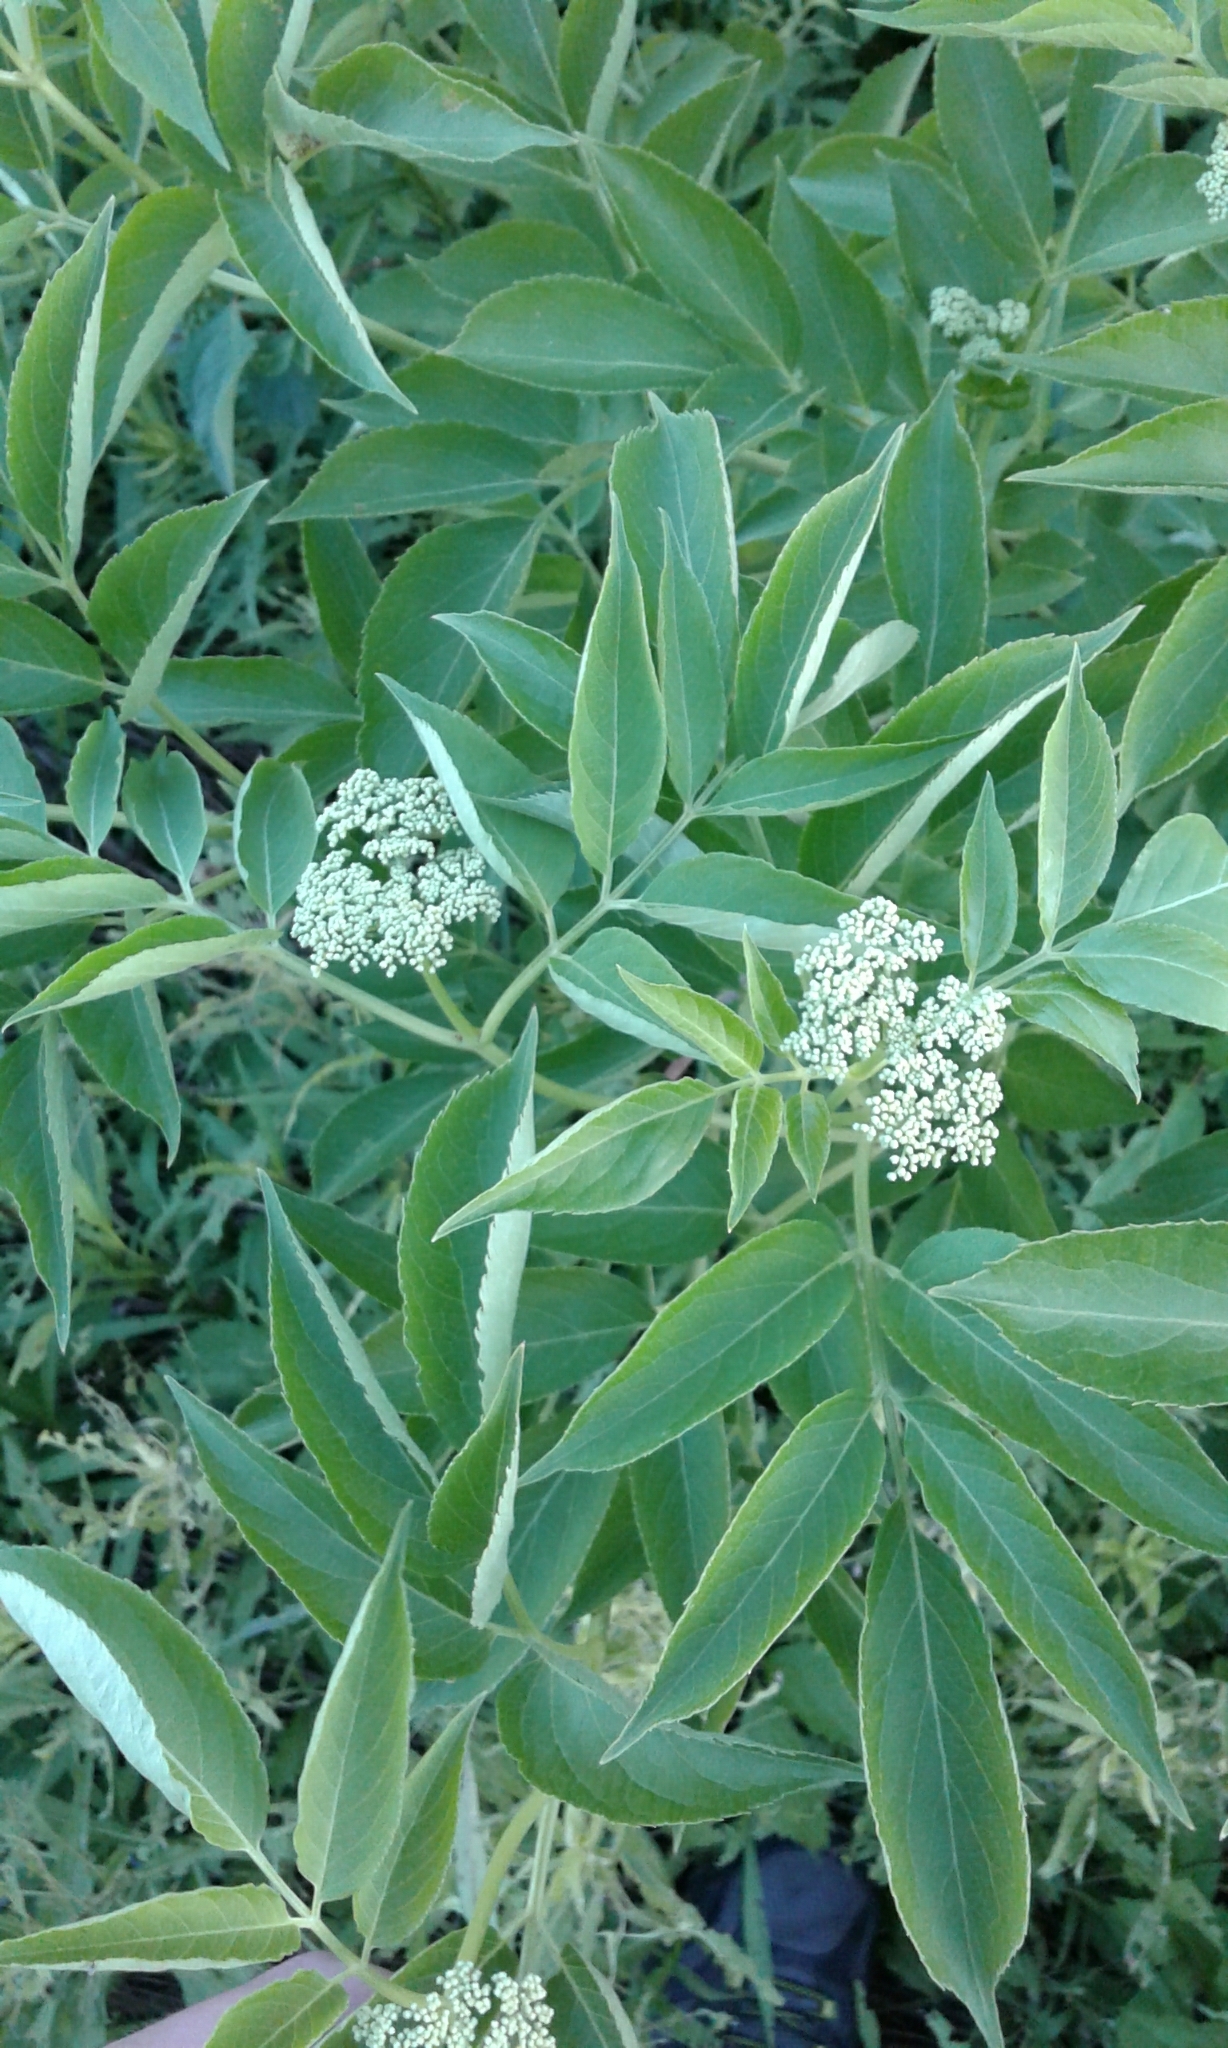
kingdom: Plantae
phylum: Tracheophyta
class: Magnoliopsida
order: Dipsacales
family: Viburnaceae
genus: Sambucus
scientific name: Sambucus canadensis
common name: American elder
